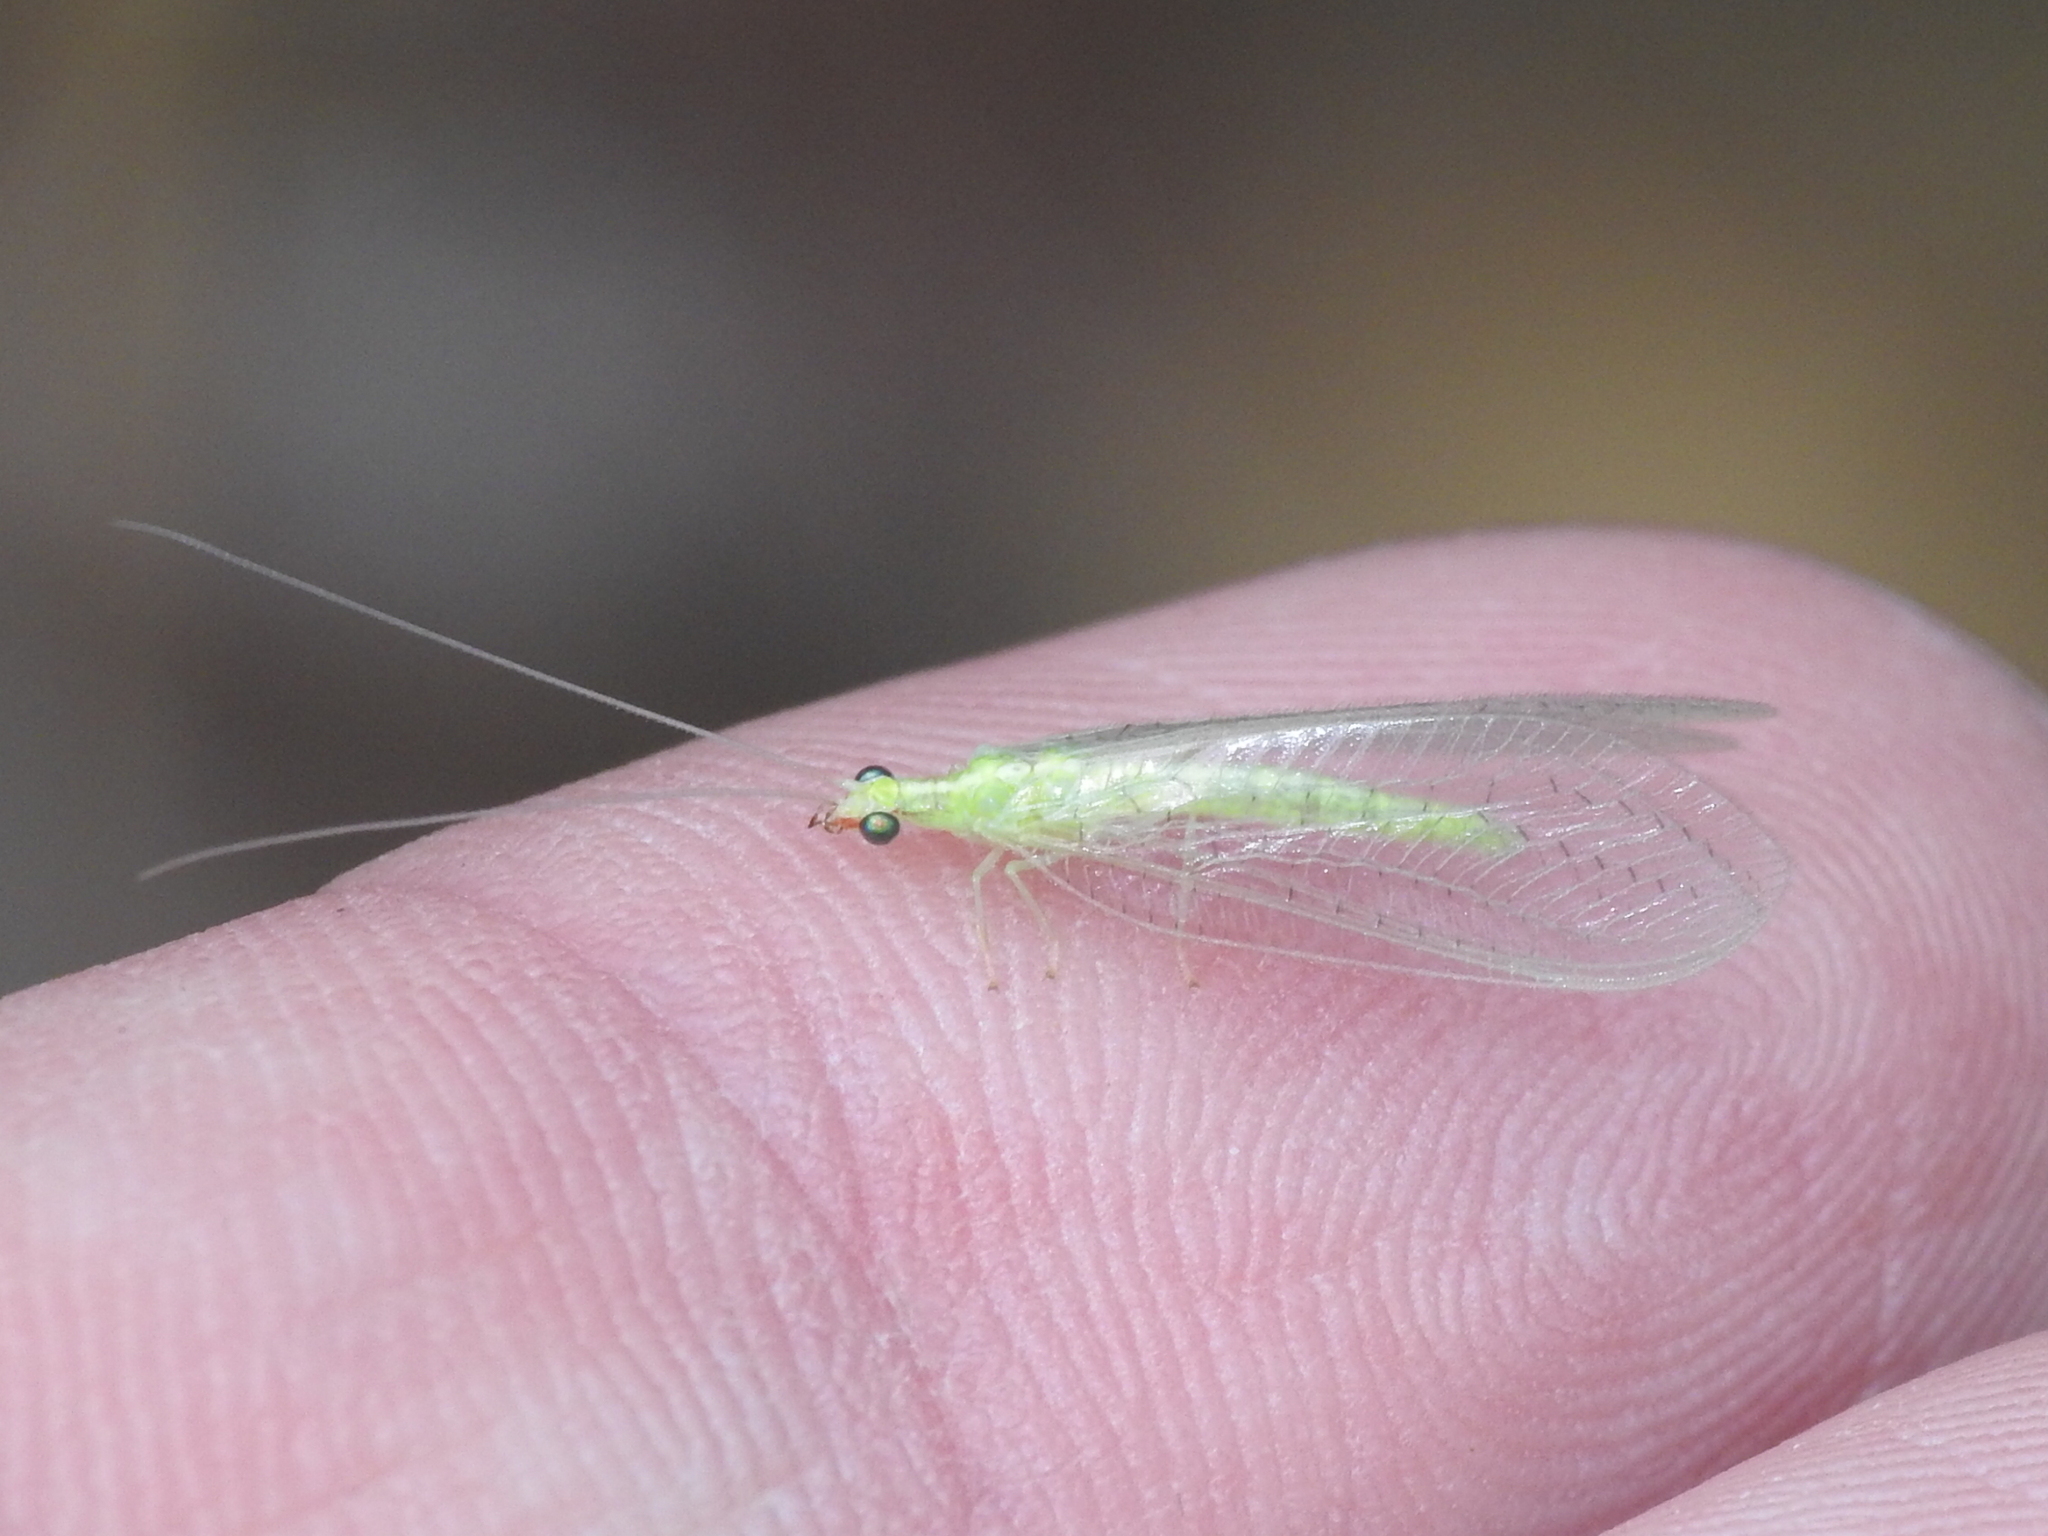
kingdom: Animalia
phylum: Arthropoda
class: Insecta
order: Neuroptera
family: Chrysopidae
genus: Chrysoperla
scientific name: Chrysoperla rufilabris
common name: Red-lipped green lacewing
